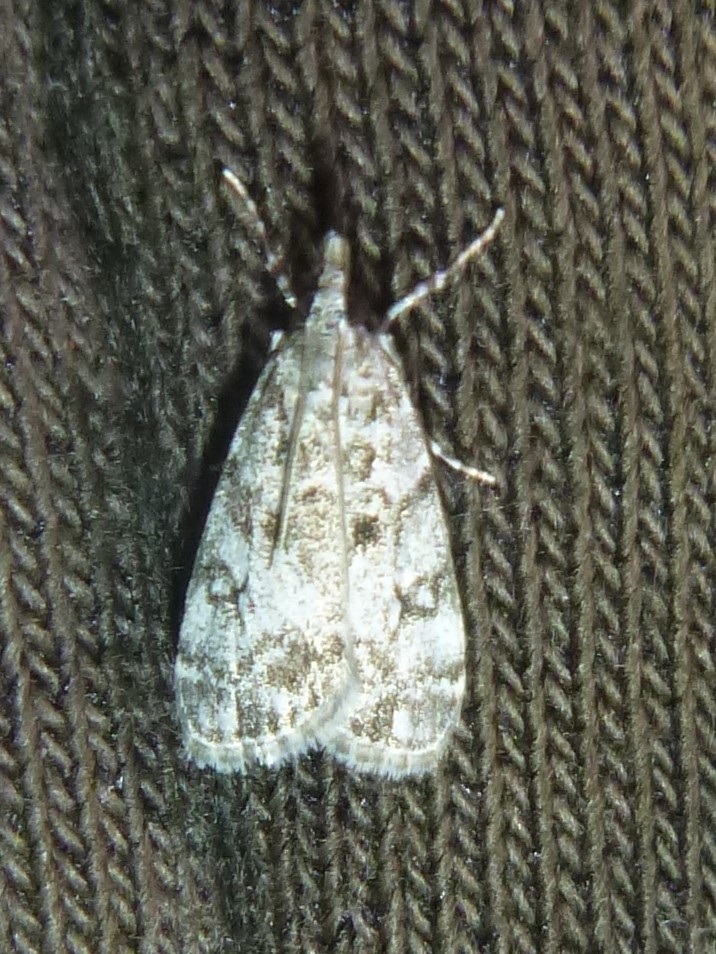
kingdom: Animalia
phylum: Arthropoda
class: Insecta
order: Lepidoptera
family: Crambidae
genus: Eudonia
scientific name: Eudonia lacustrata
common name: Little grey
